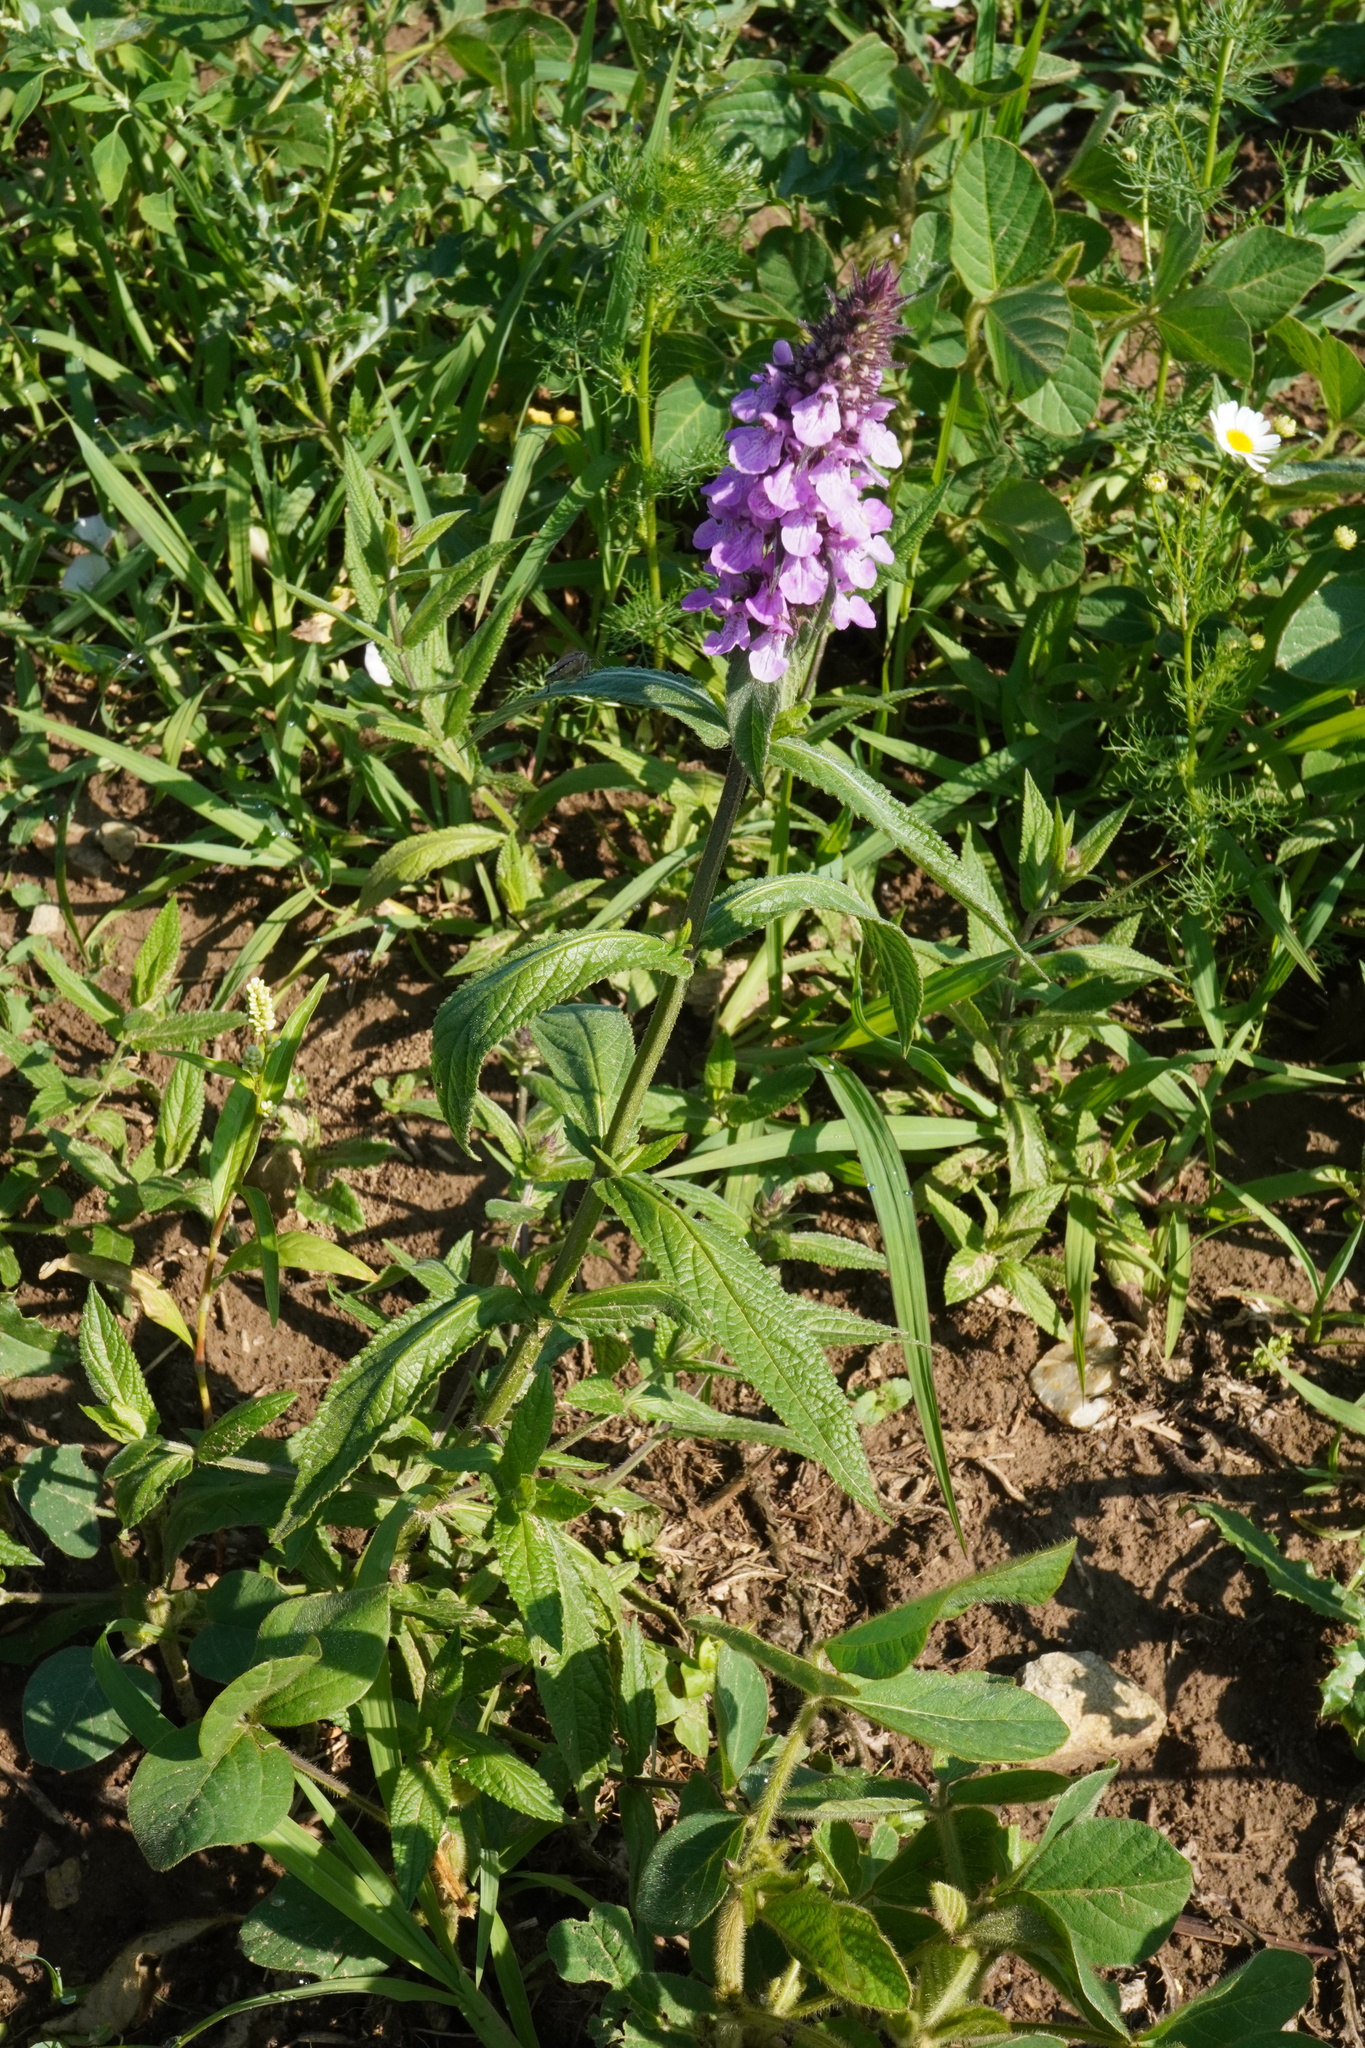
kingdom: Plantae
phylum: Tracheophyta
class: Magnoliopsida
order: Lamiales
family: Lamiaceae
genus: Stachys
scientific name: Stachys palustris
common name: Marsh woundwort
